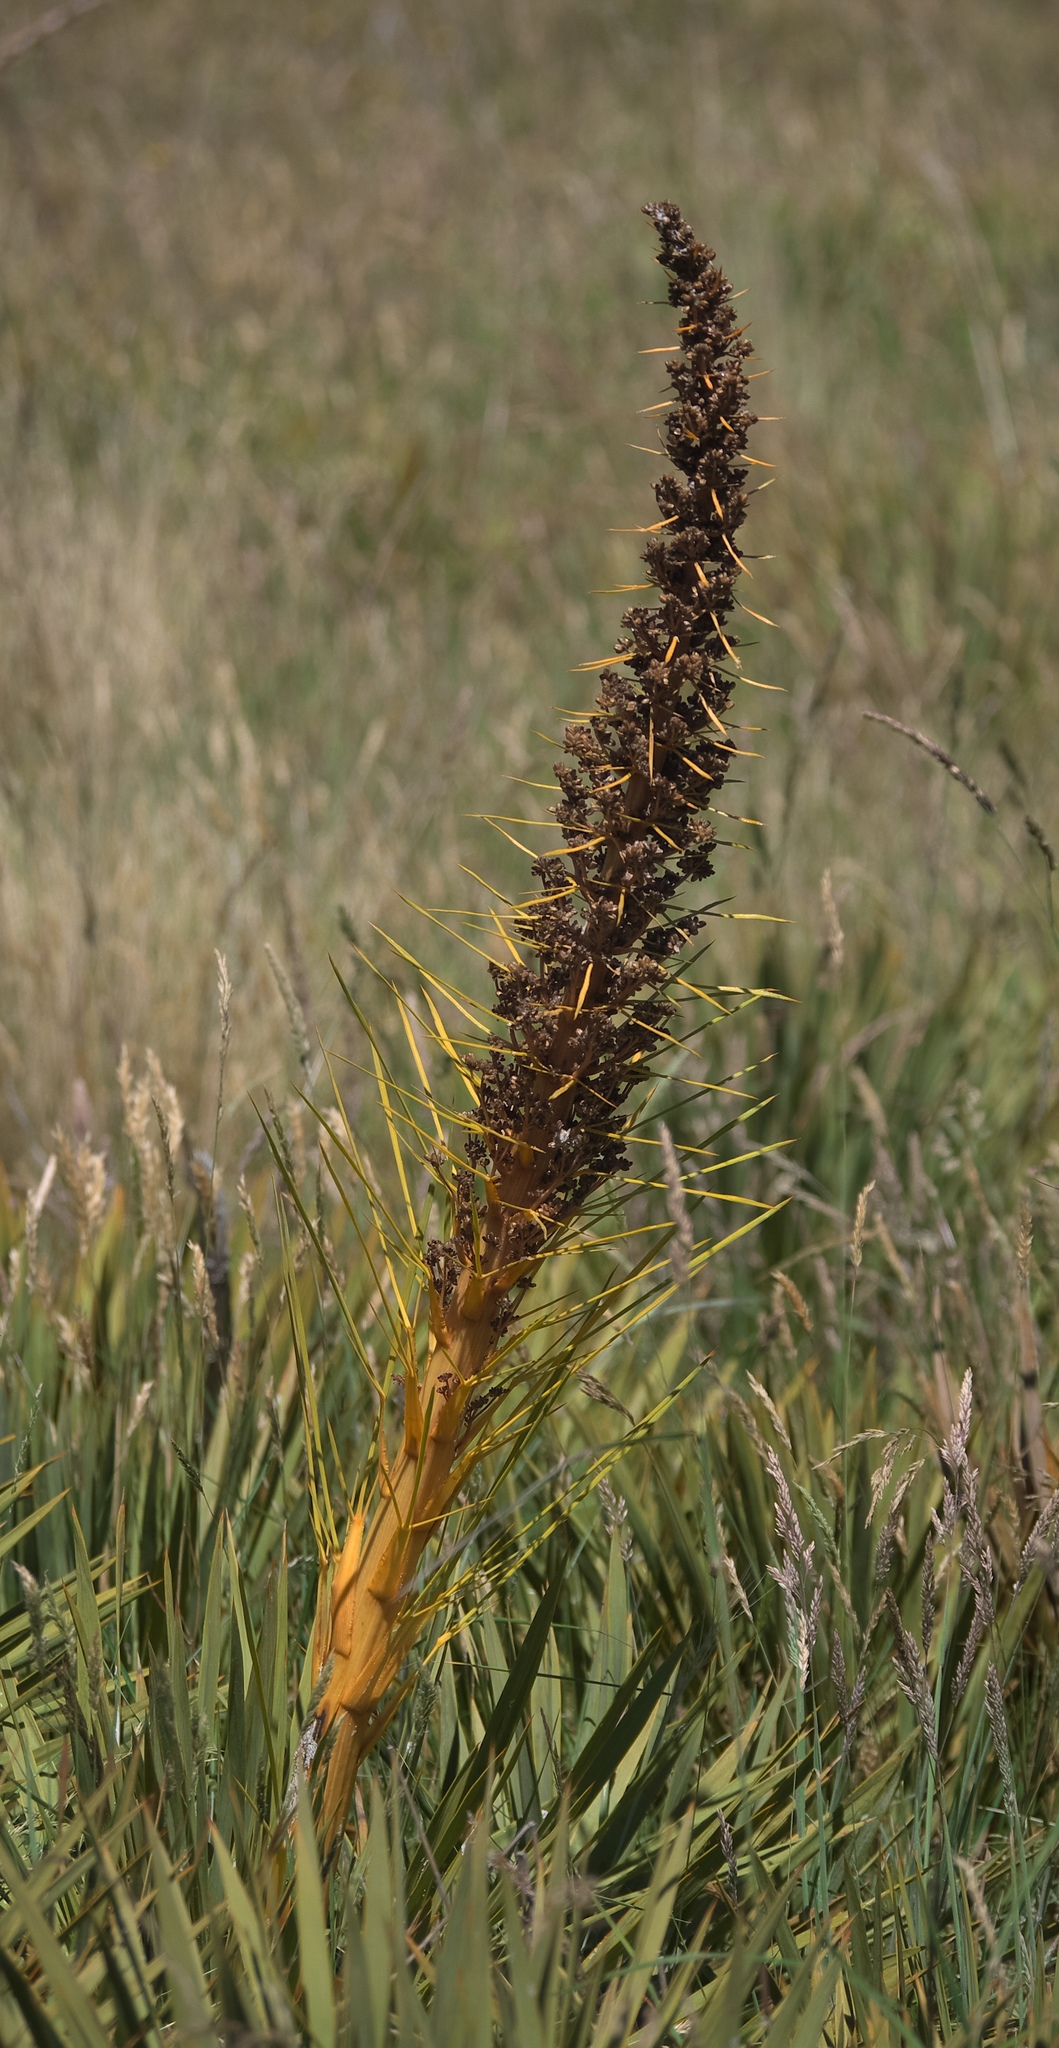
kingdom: Plantae
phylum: Tracheophyta
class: Magnoliopsida
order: Apiales
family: Apiaceae
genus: Aciphylla
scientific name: Aciphylla scott-thomsonii
